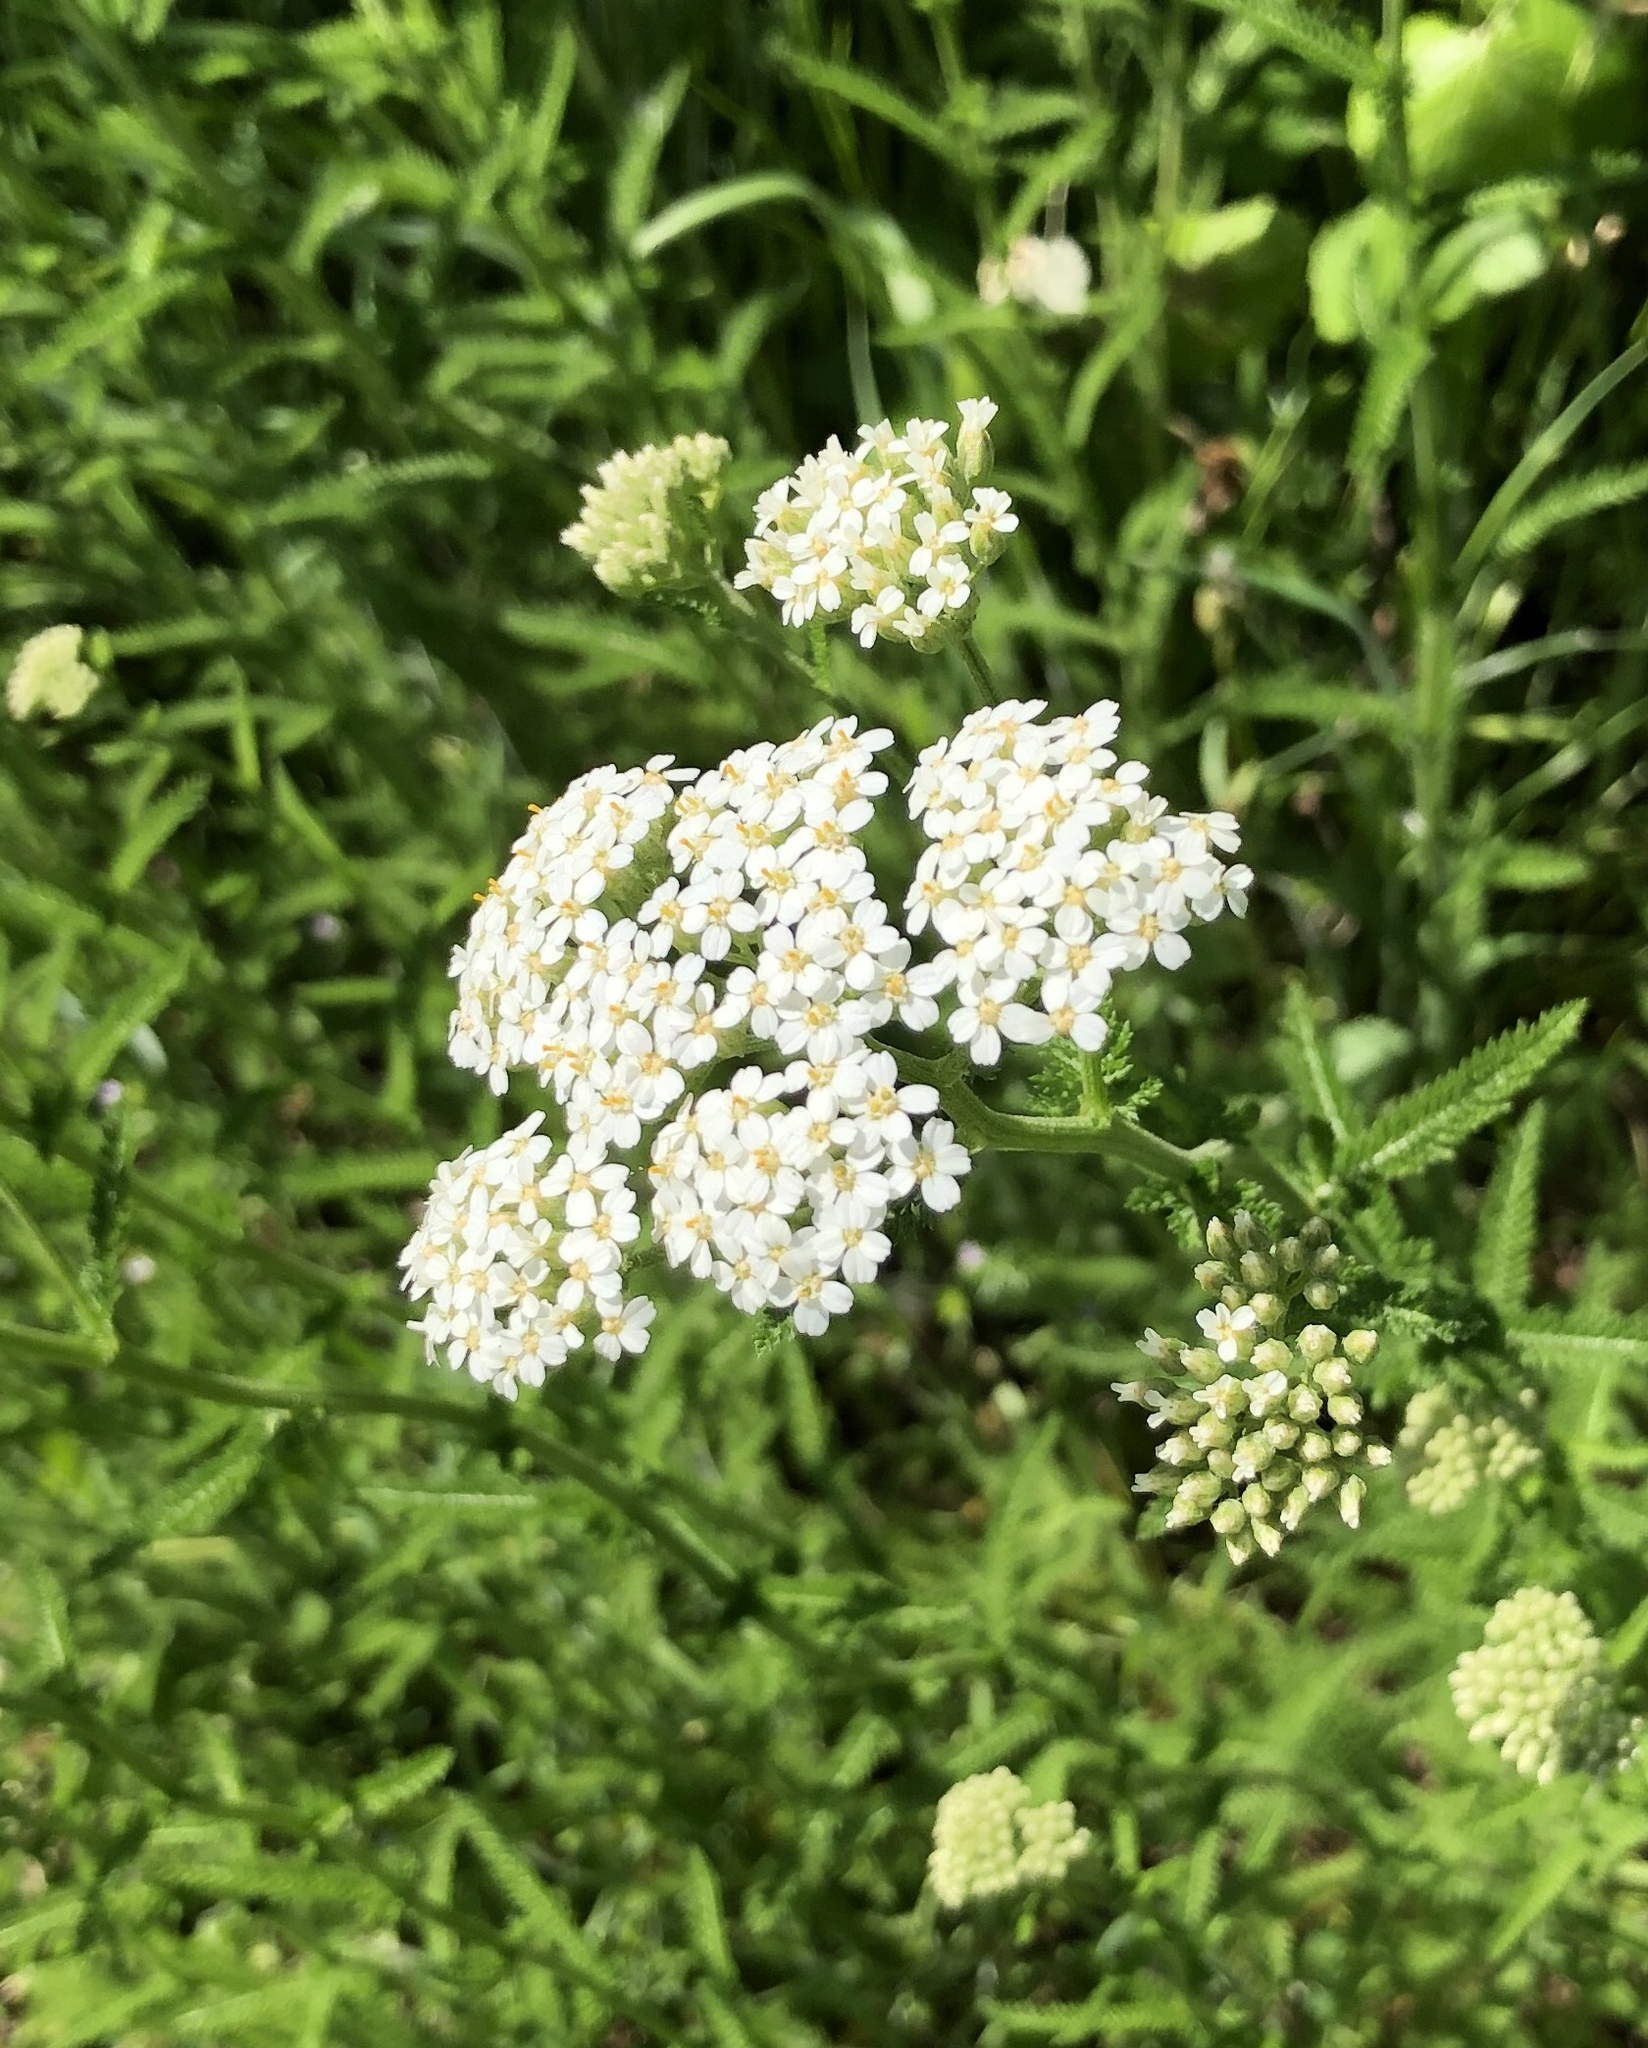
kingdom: Plantae
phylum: Tracheophyta
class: Magnoliopsida
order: Asterales
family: Asteraceae
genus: Achillea
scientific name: Achillea millefolium
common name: Yarrow
